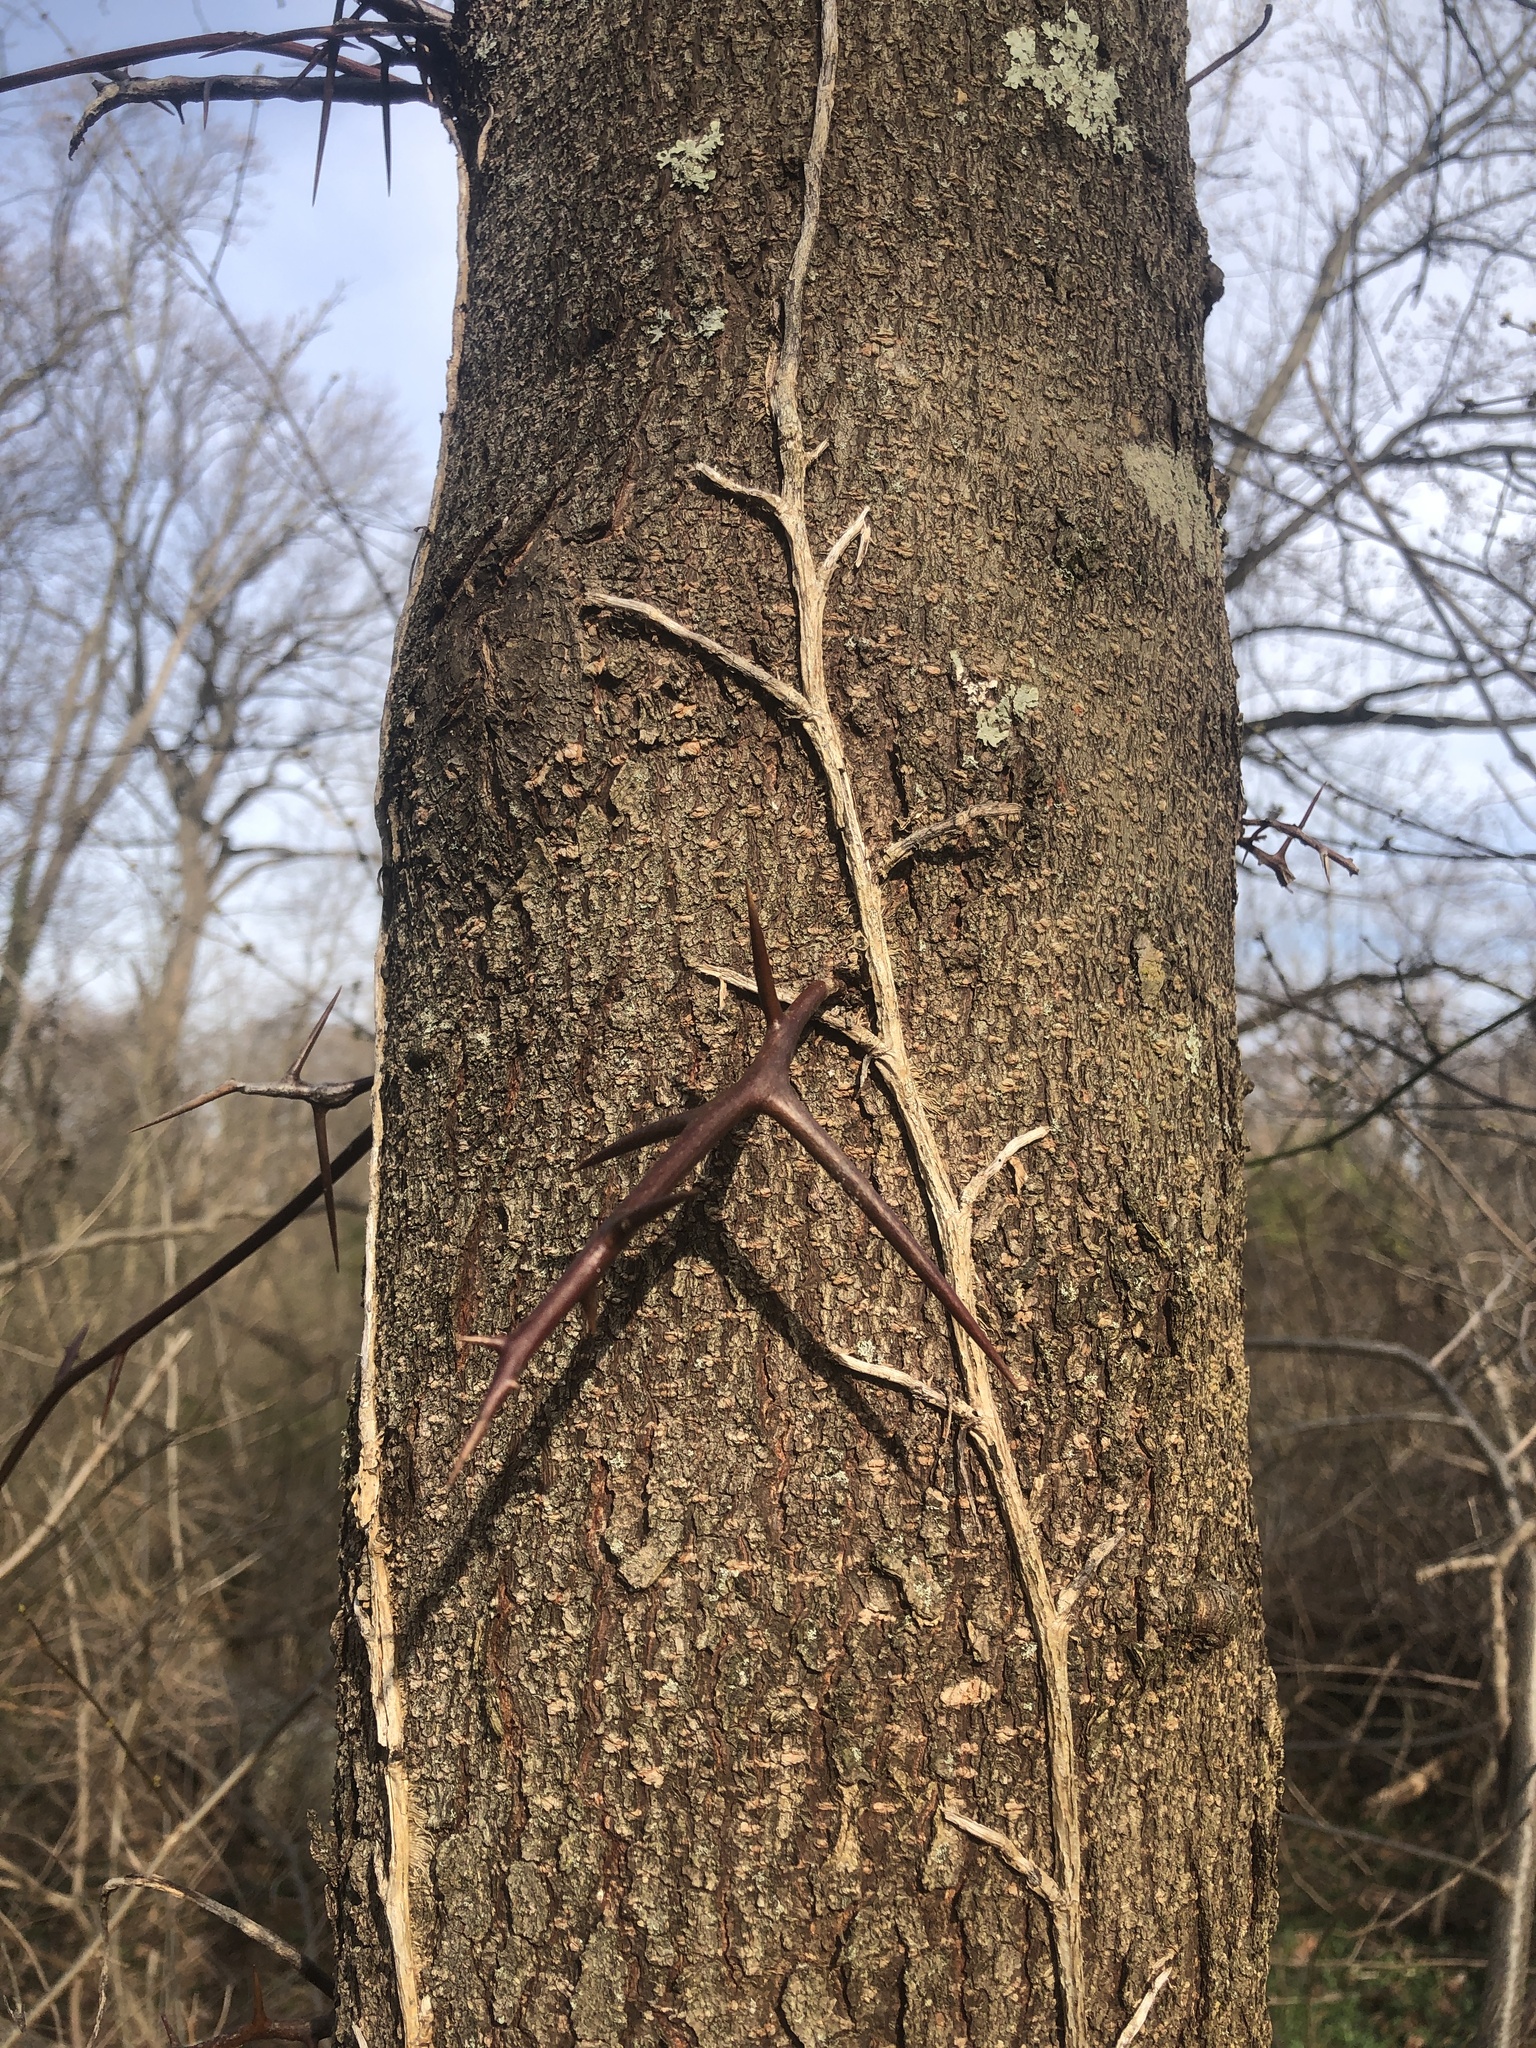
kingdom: Plantae
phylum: Tracheophyta
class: Magnoliopsida
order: Fabales
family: Fabaceae
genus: Gleditsia
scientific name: Gleditsia triacanthos
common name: Common honeylocust
